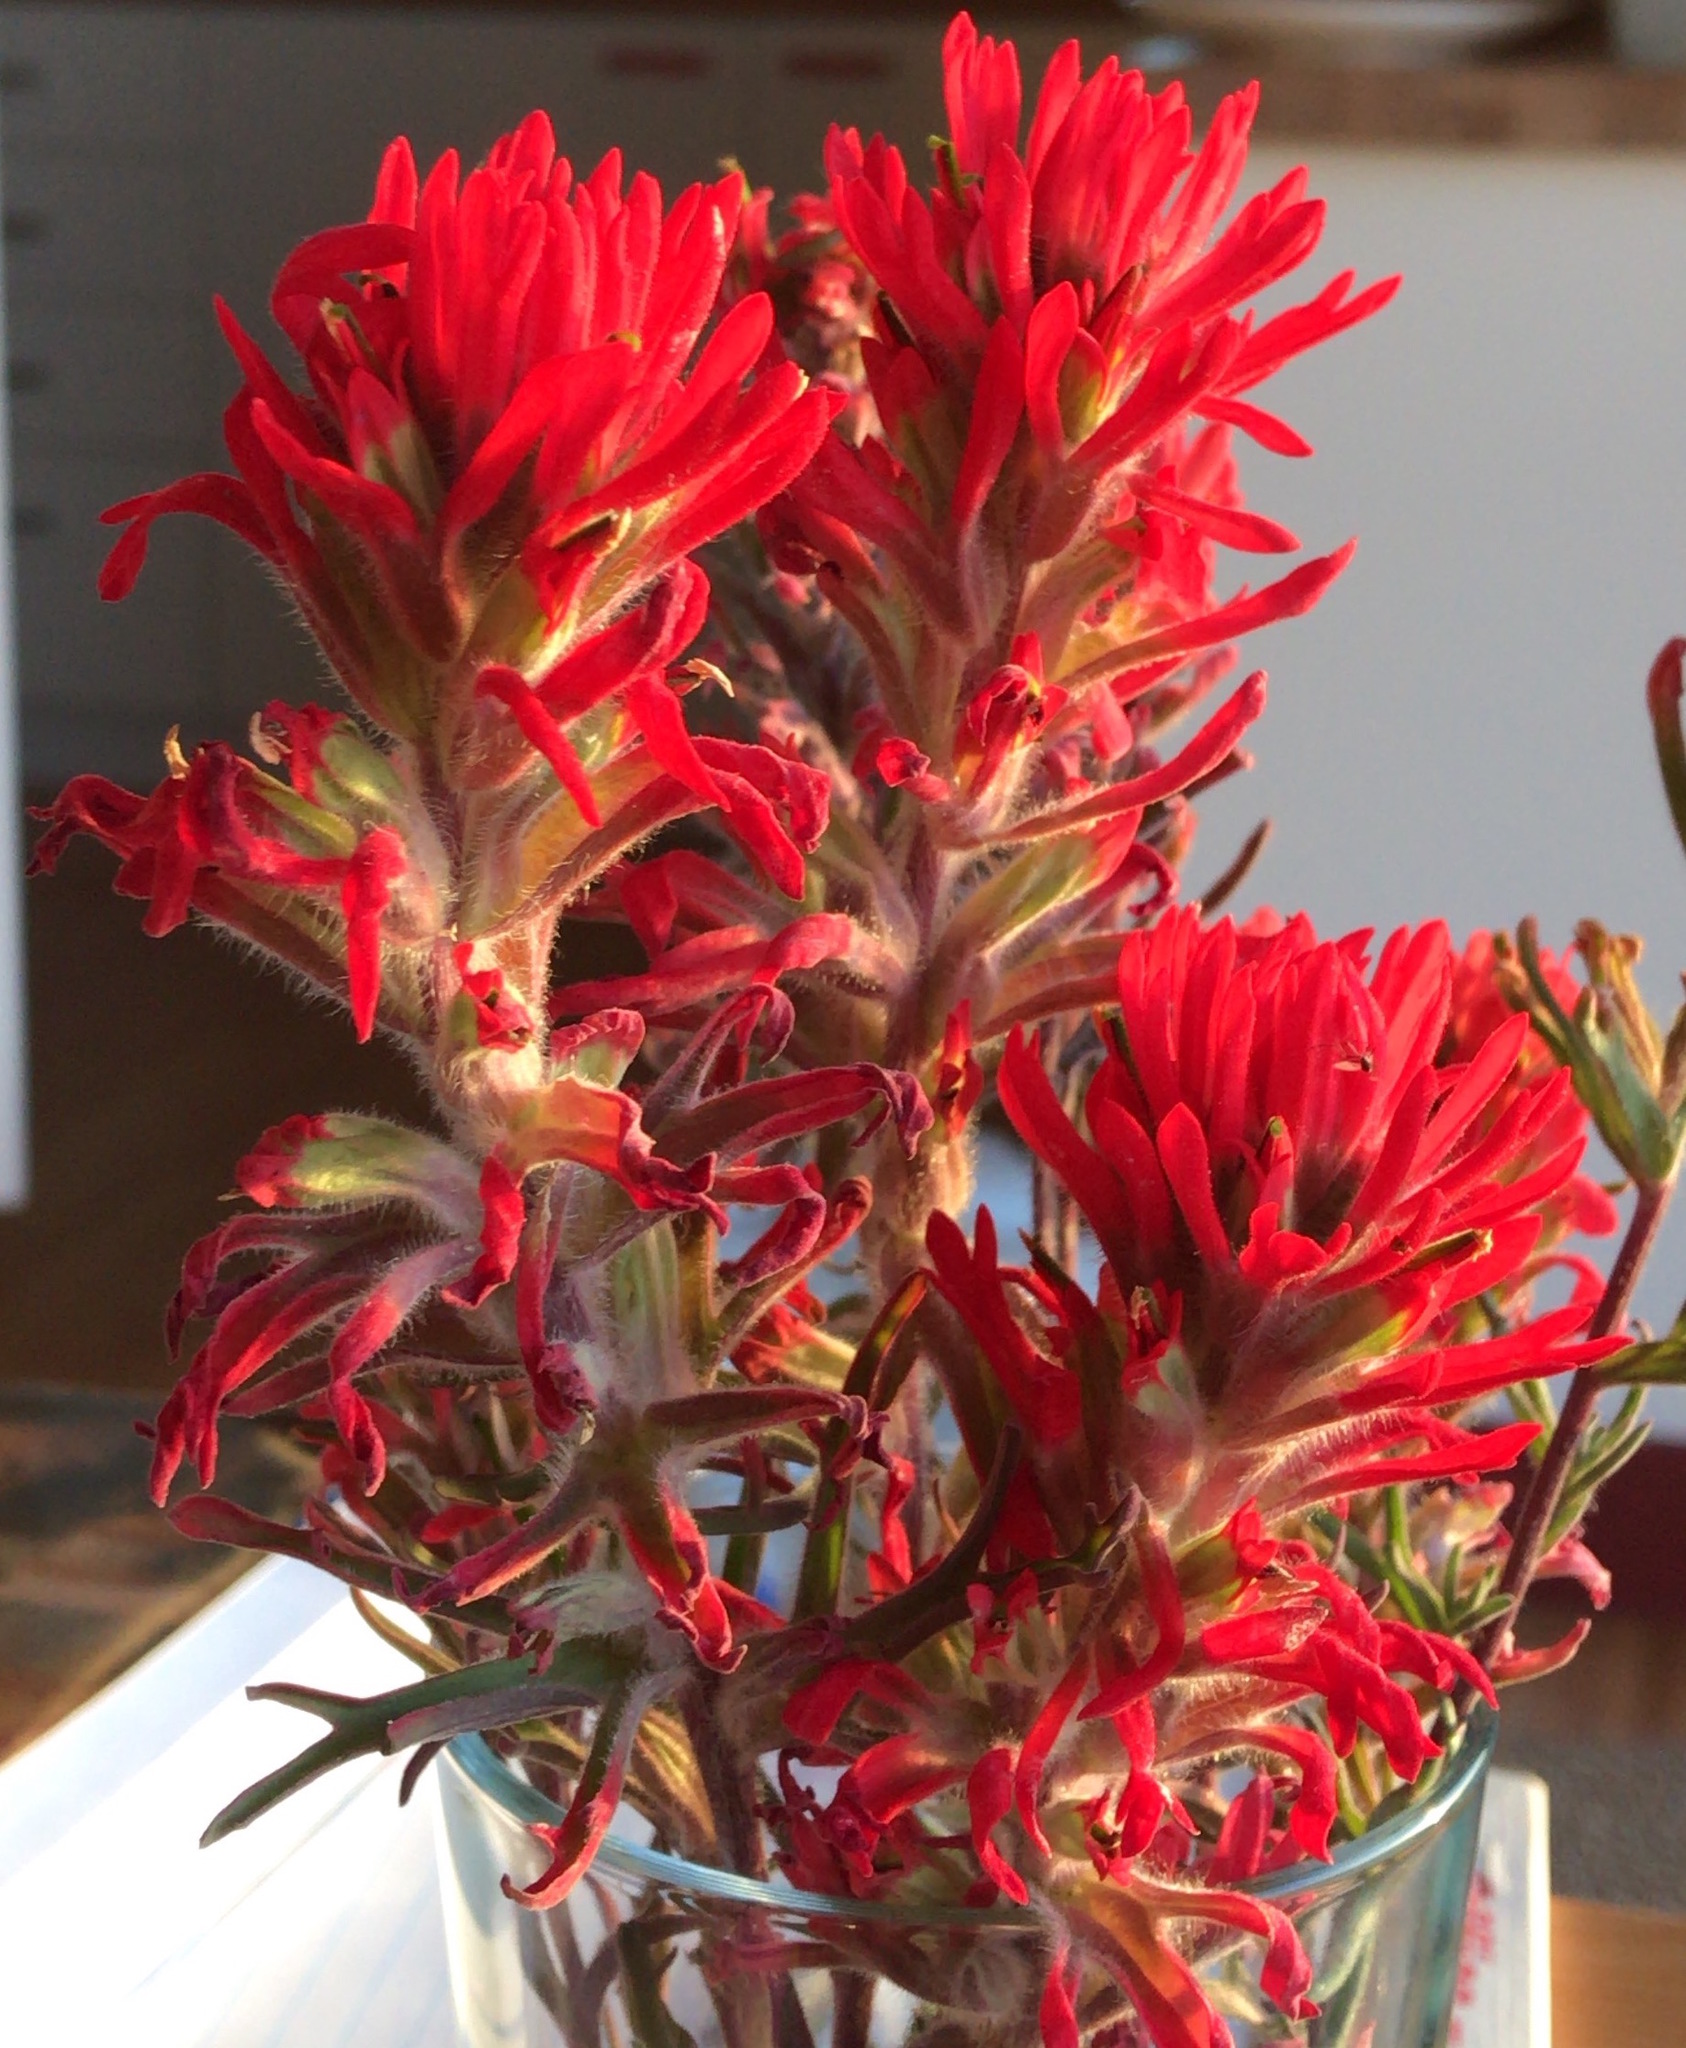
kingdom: Plantae
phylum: Tracheophyta
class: Magnoliopsida
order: Lamiales
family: Orobanchaceae
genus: Castilleja
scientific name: Castilleja chromosa
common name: Desert paintbrush
